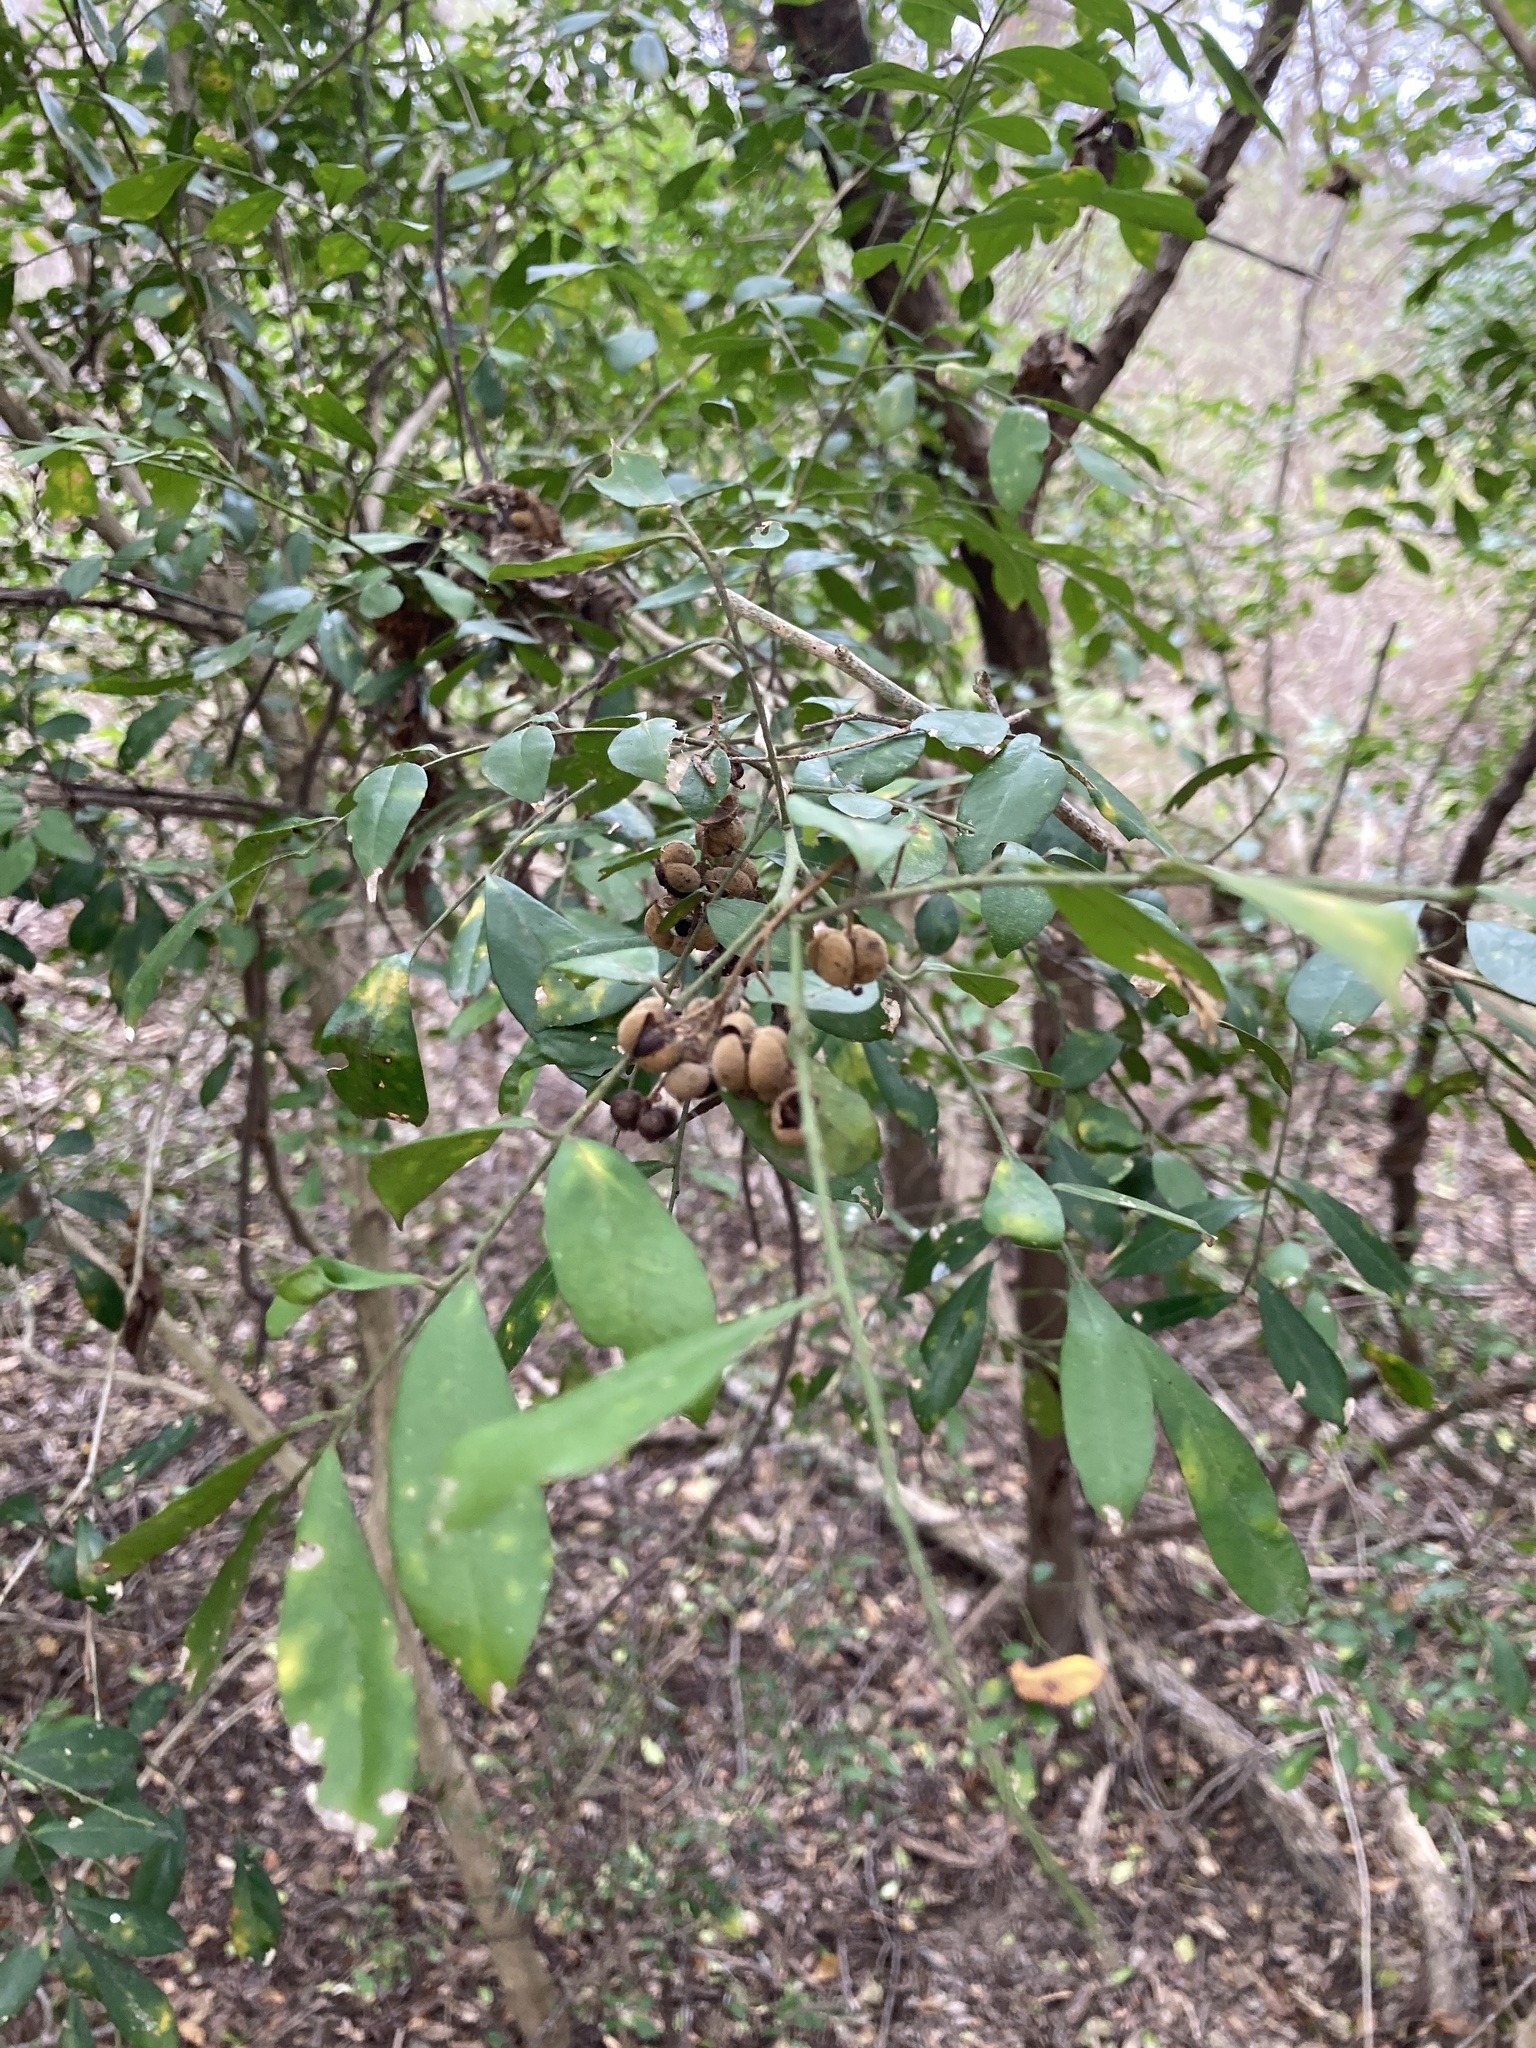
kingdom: Plantae
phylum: Tracheophyta
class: Magnoliopsida
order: Sapindales
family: Rutaceae
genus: Murraya
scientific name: Murraya paniculata
